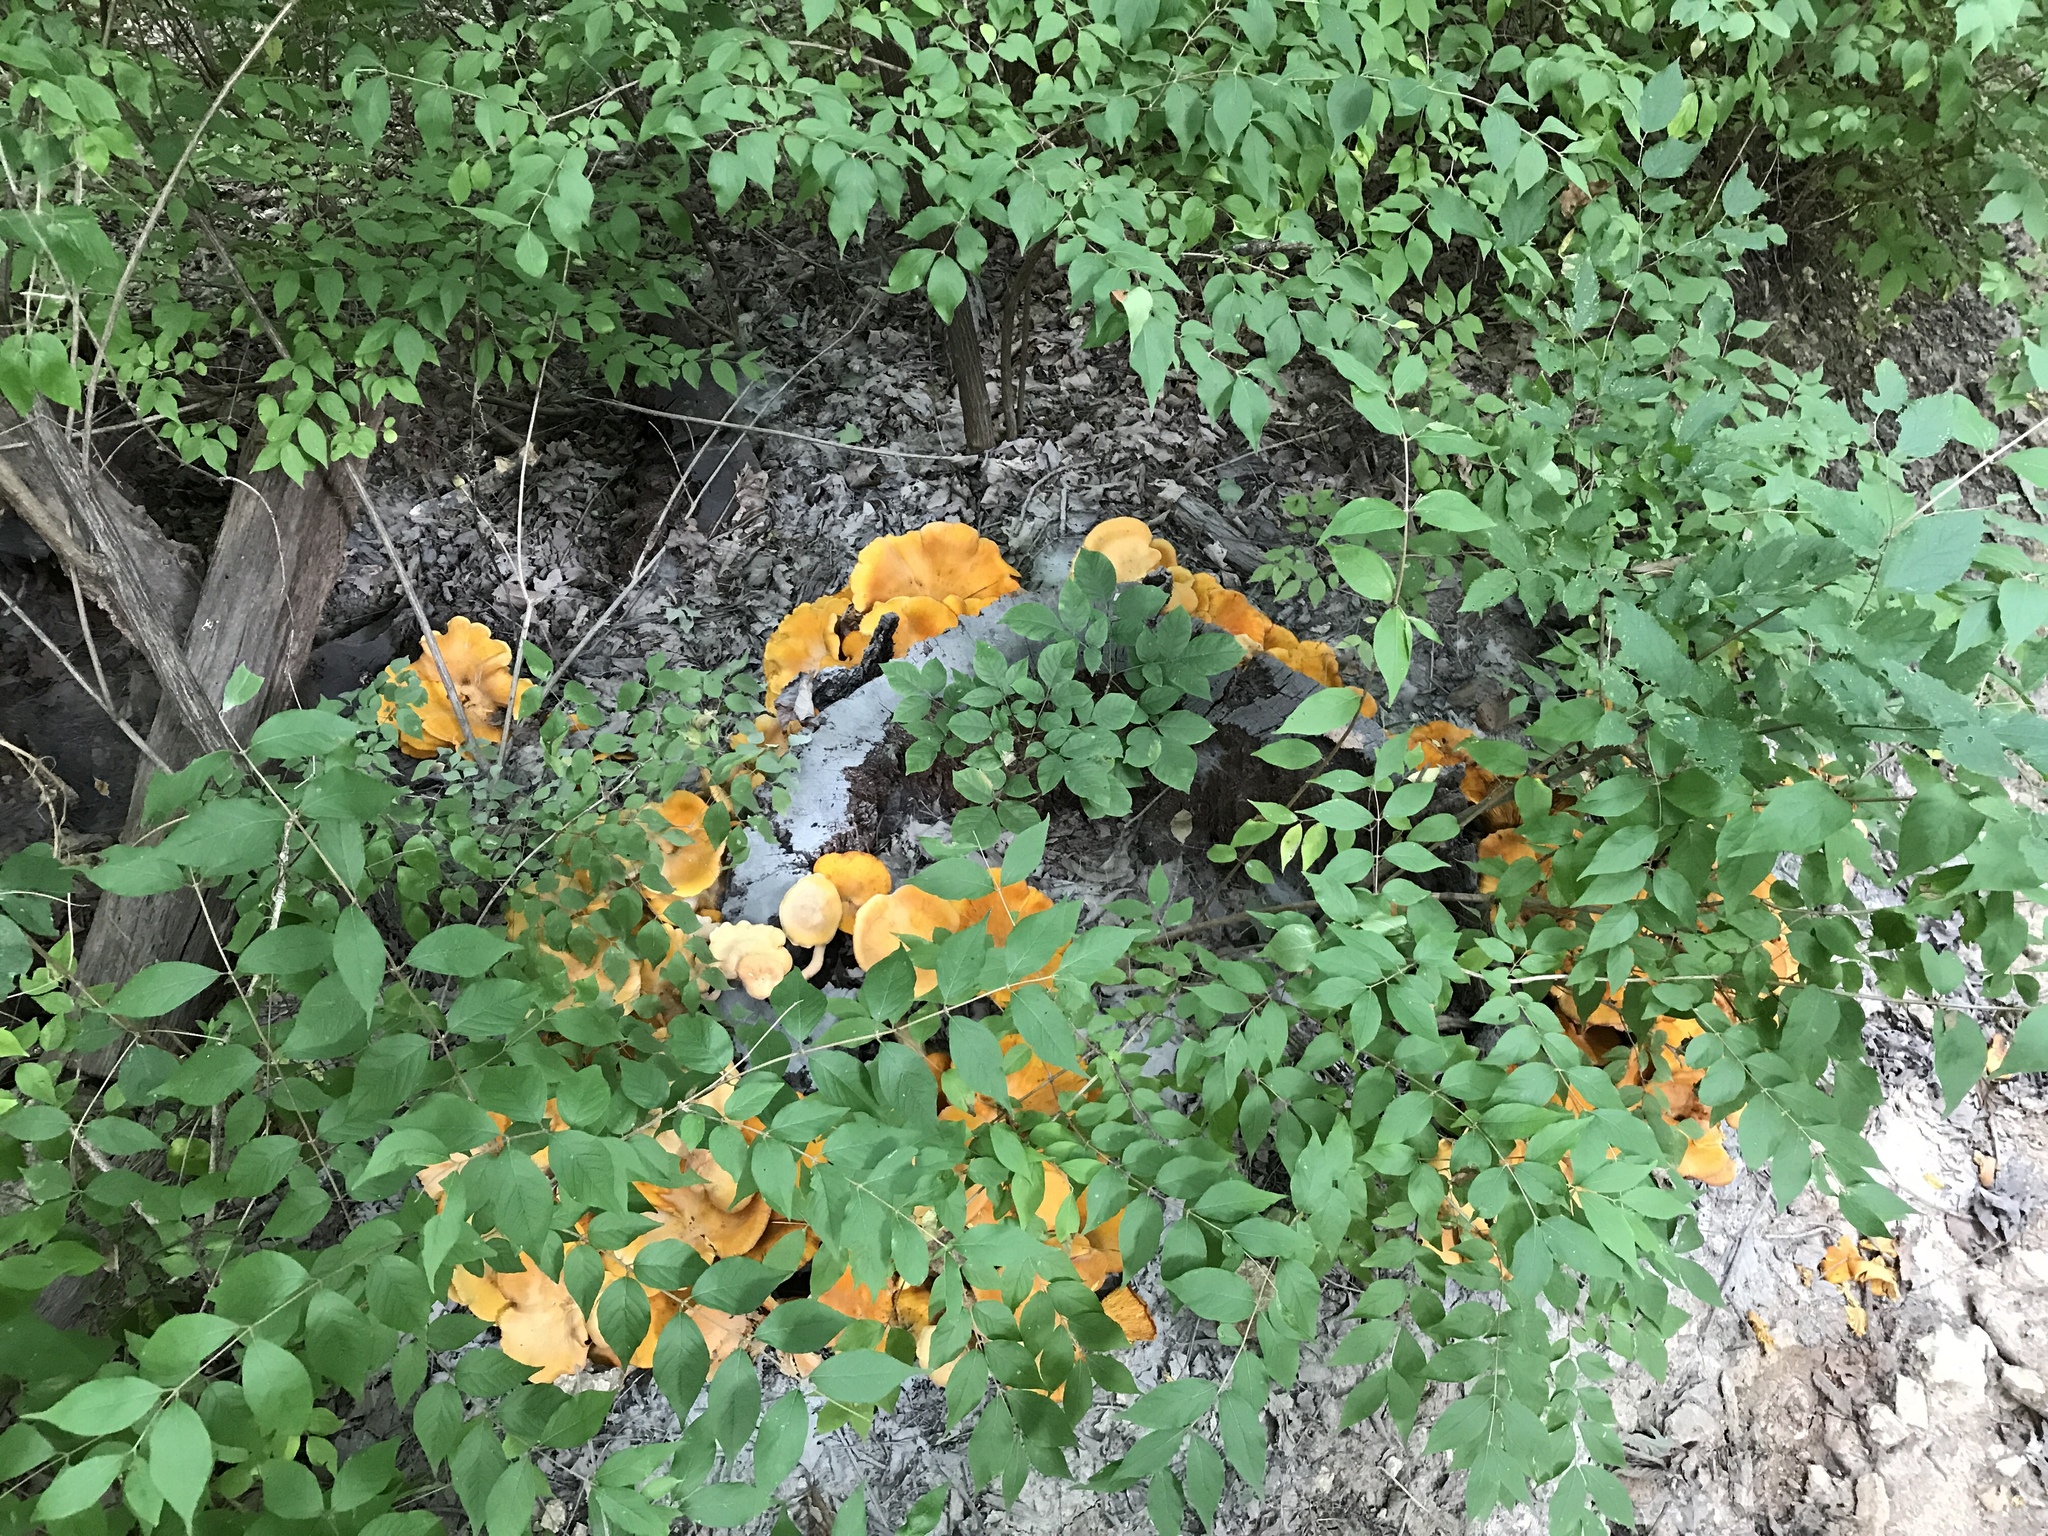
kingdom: Fungi
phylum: Basidiomycota
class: Agaricomycetes
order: Agaricales
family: Omphalotaceae
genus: Omphalotus
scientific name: Omphalotus illudens
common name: Jack o lantern
